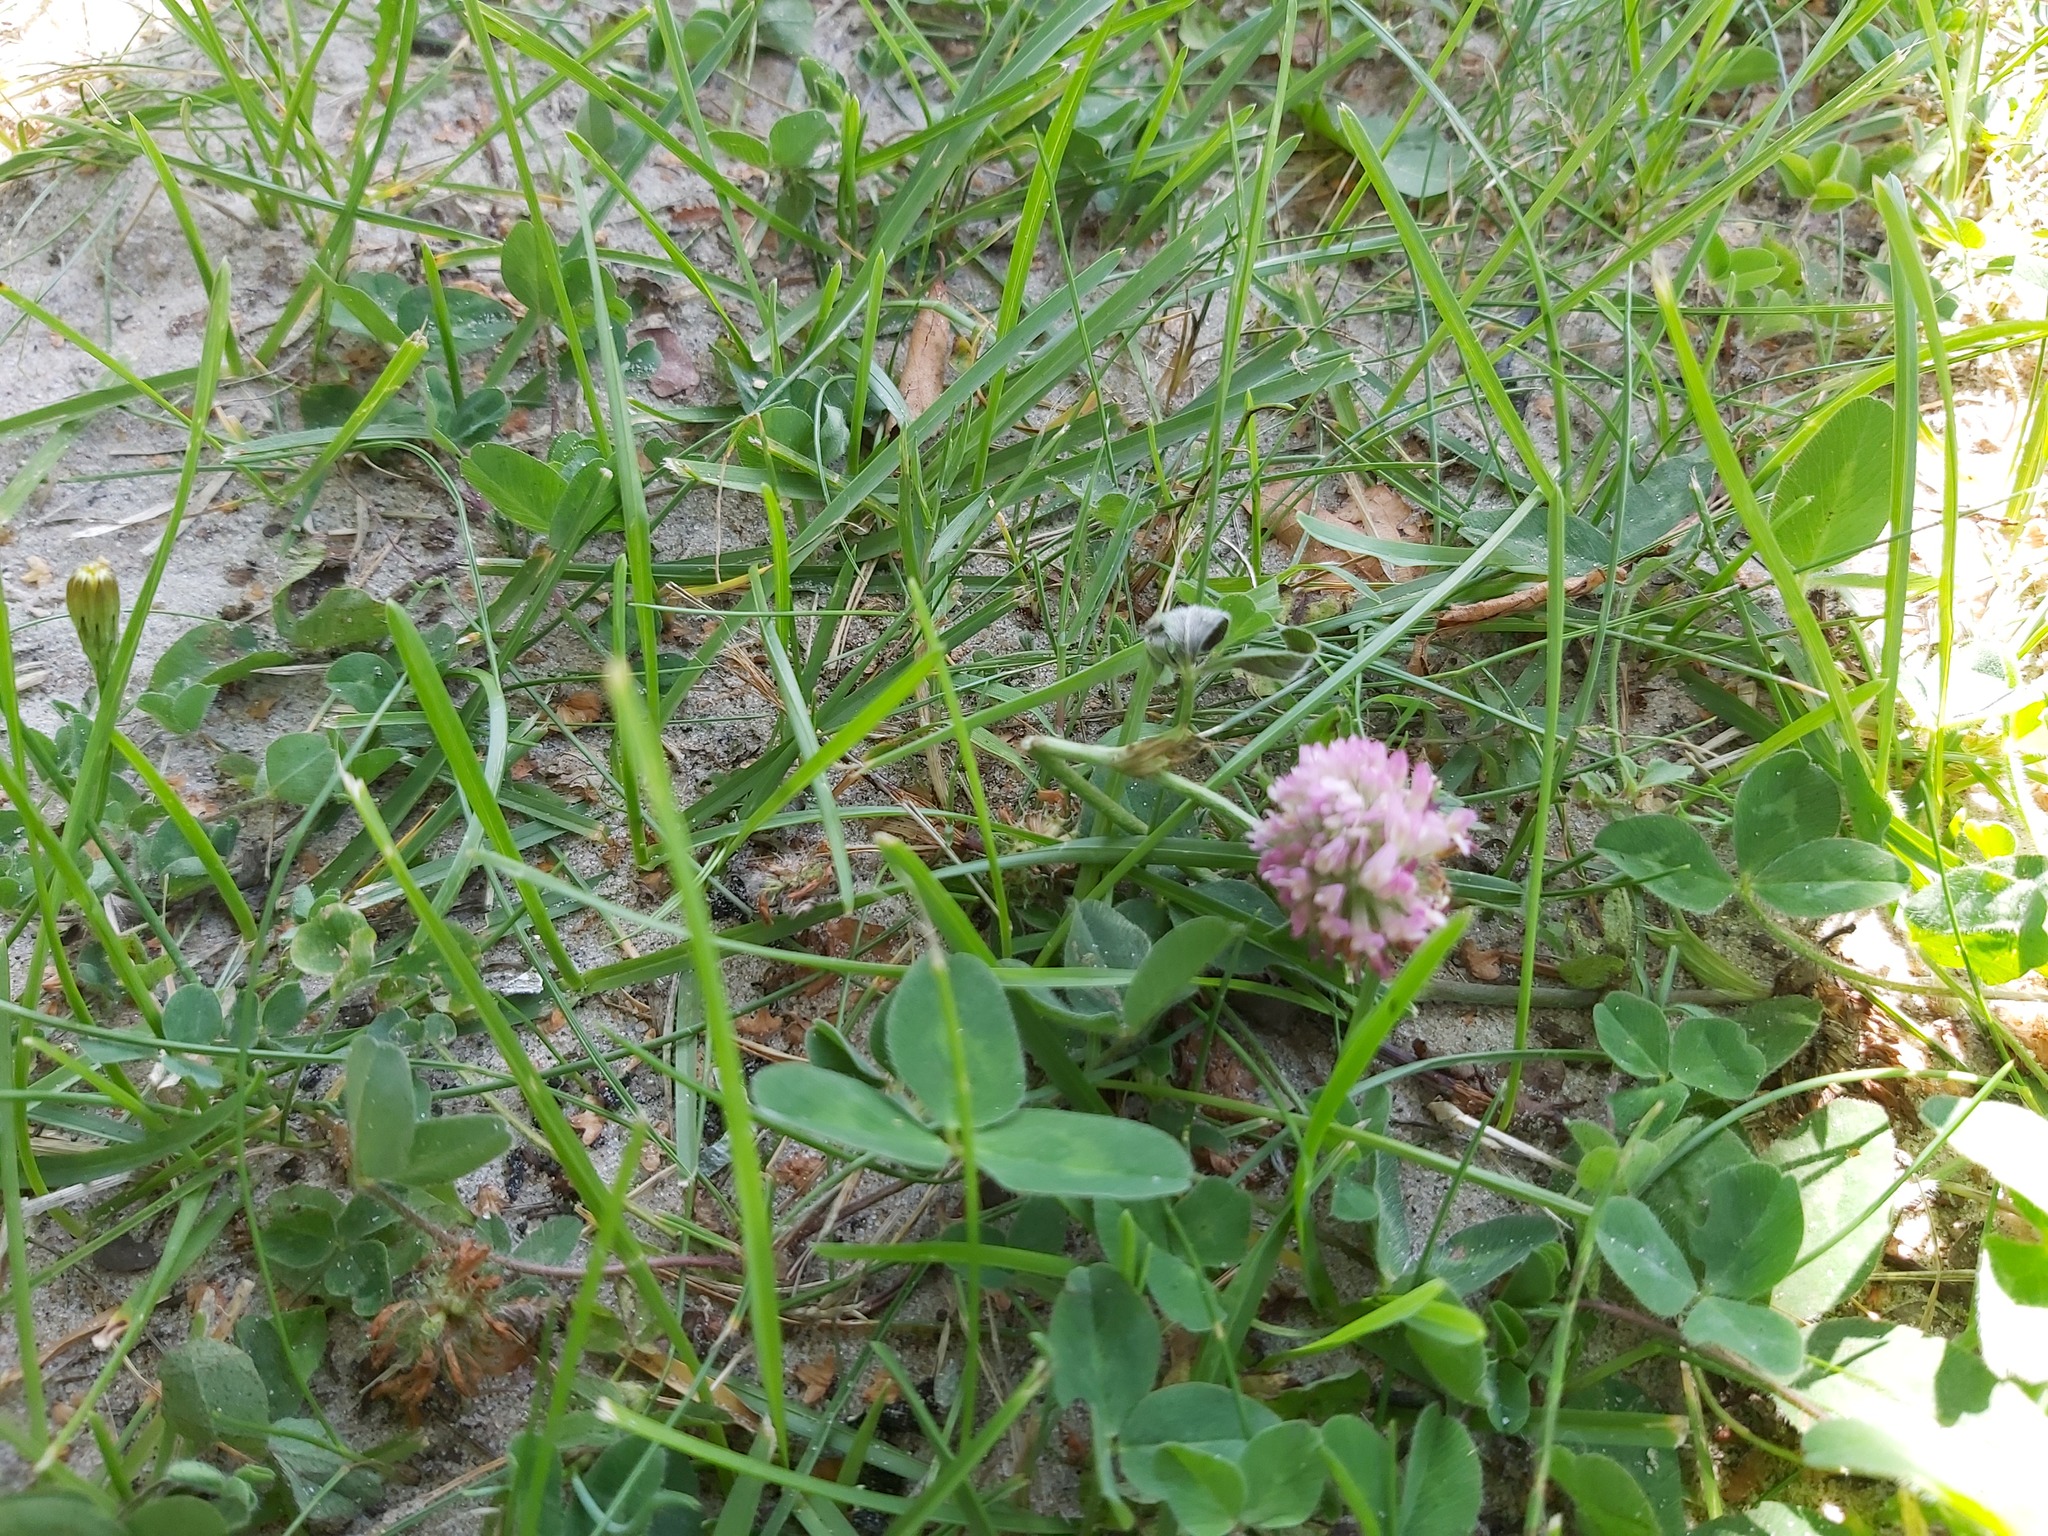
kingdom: Plantae
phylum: Tracheophyta
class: Magnoliopsida
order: Fabales
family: Fabaceae
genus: Trifolium
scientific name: Trifolium pratense
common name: Red clover
